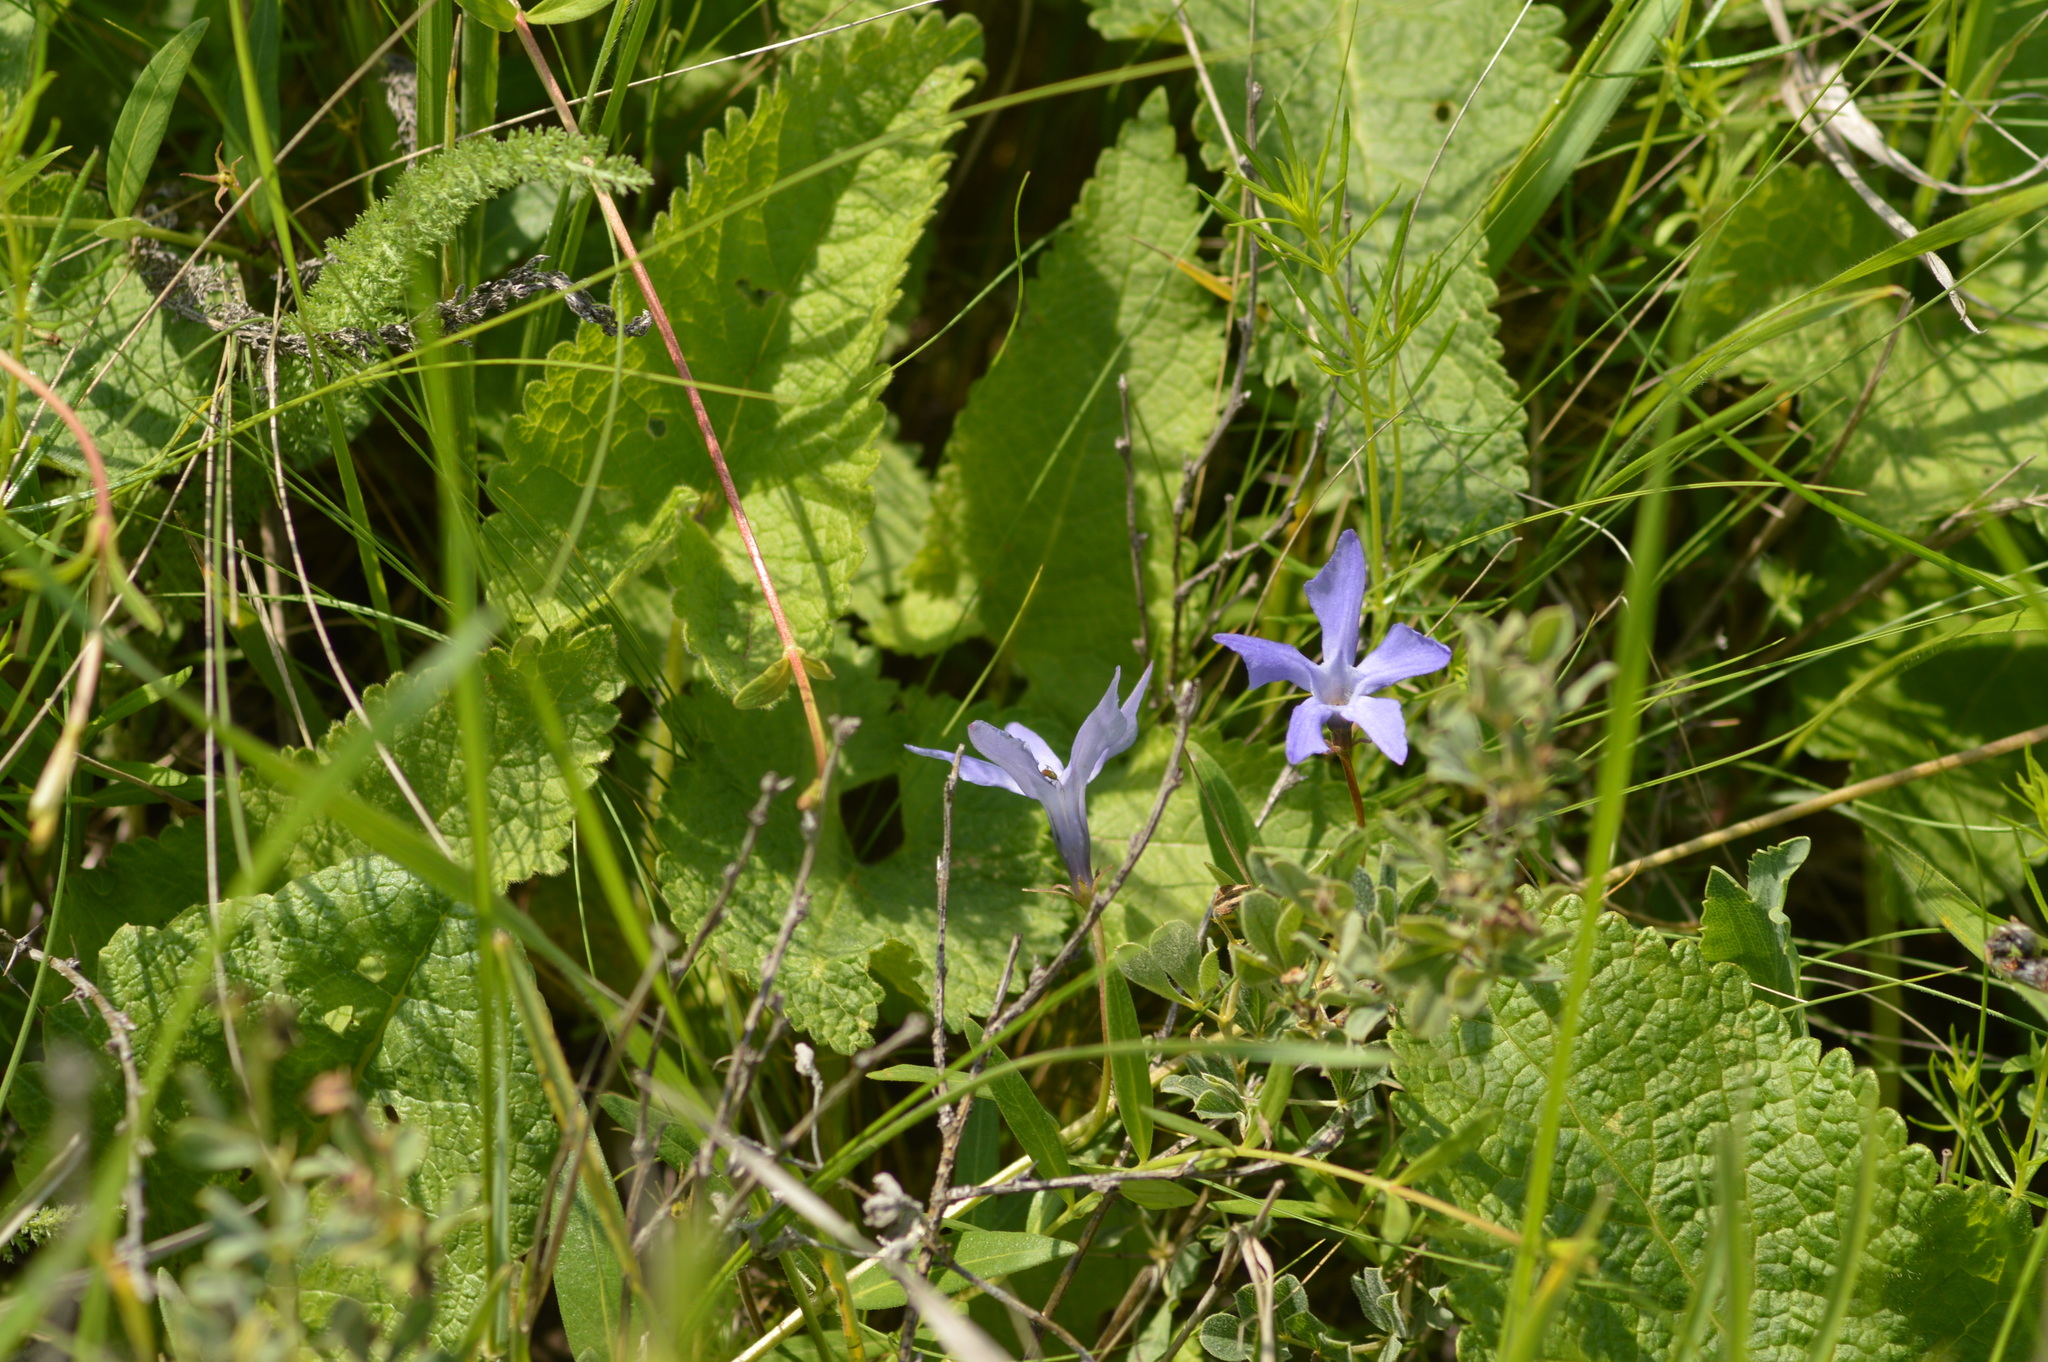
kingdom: Plantae
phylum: Tracheophyta
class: Magnoliopsida
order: Gentianales
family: Apocynaceae
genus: Vinca
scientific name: Vinca herbacea
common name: Herbaceous periwinkle
